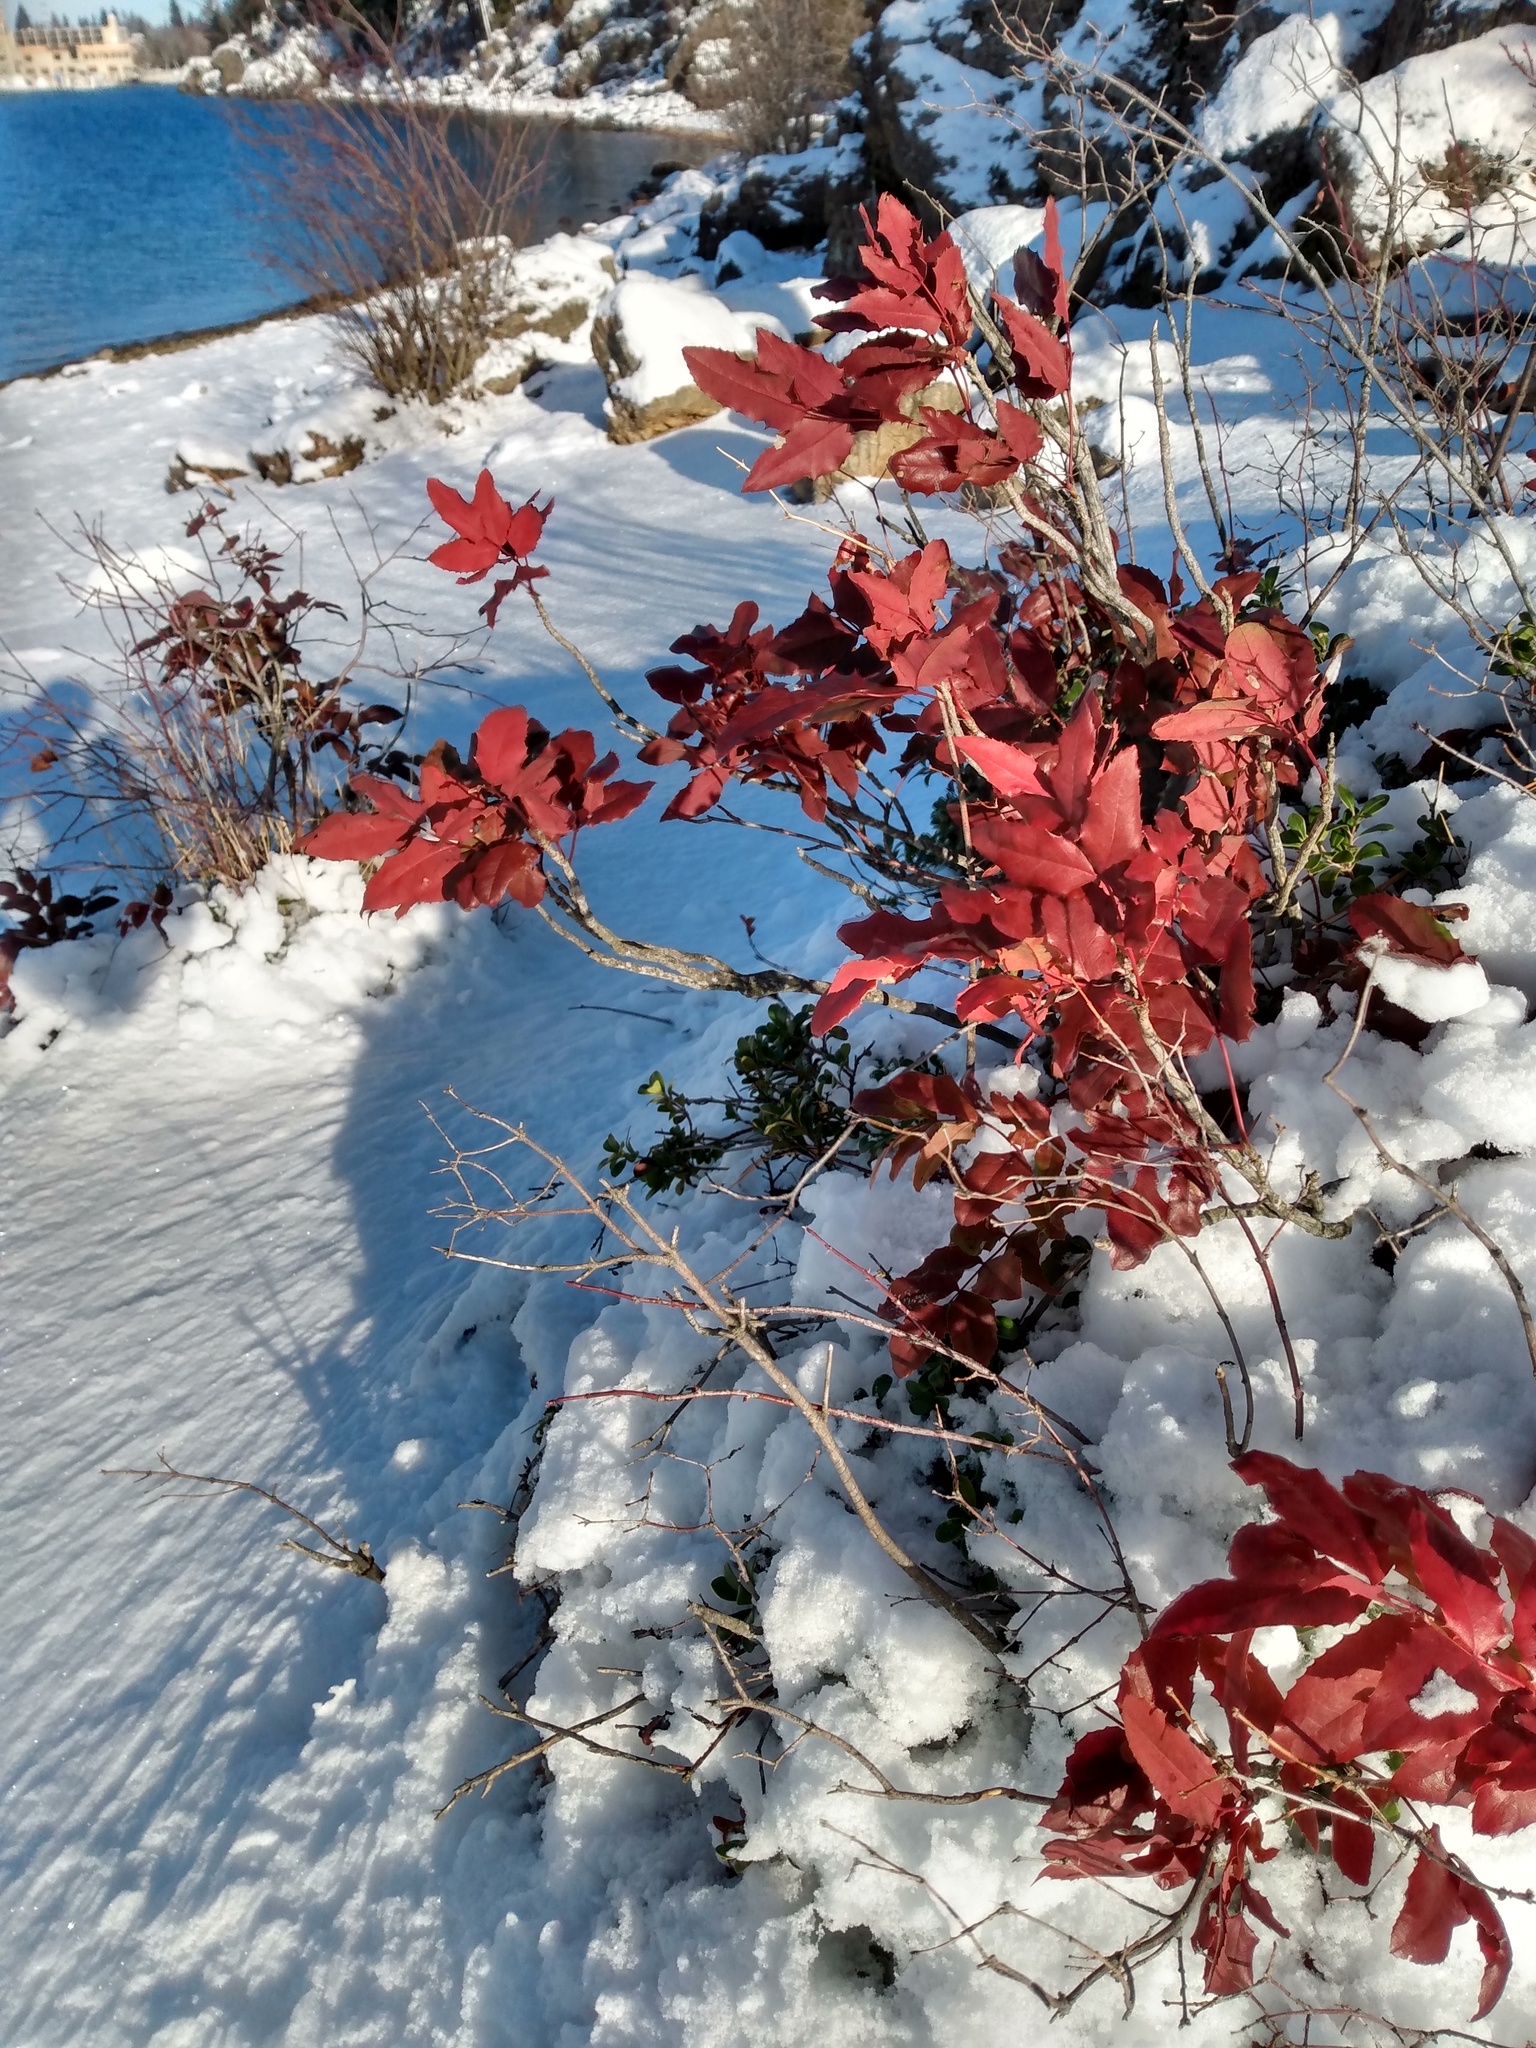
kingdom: Plantae
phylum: Tracheophyta
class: Magnoliopsida
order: Ranunculales
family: Berberidaceae
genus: Mahonia
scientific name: Mahonia repens
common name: Creeping oregon-grape
